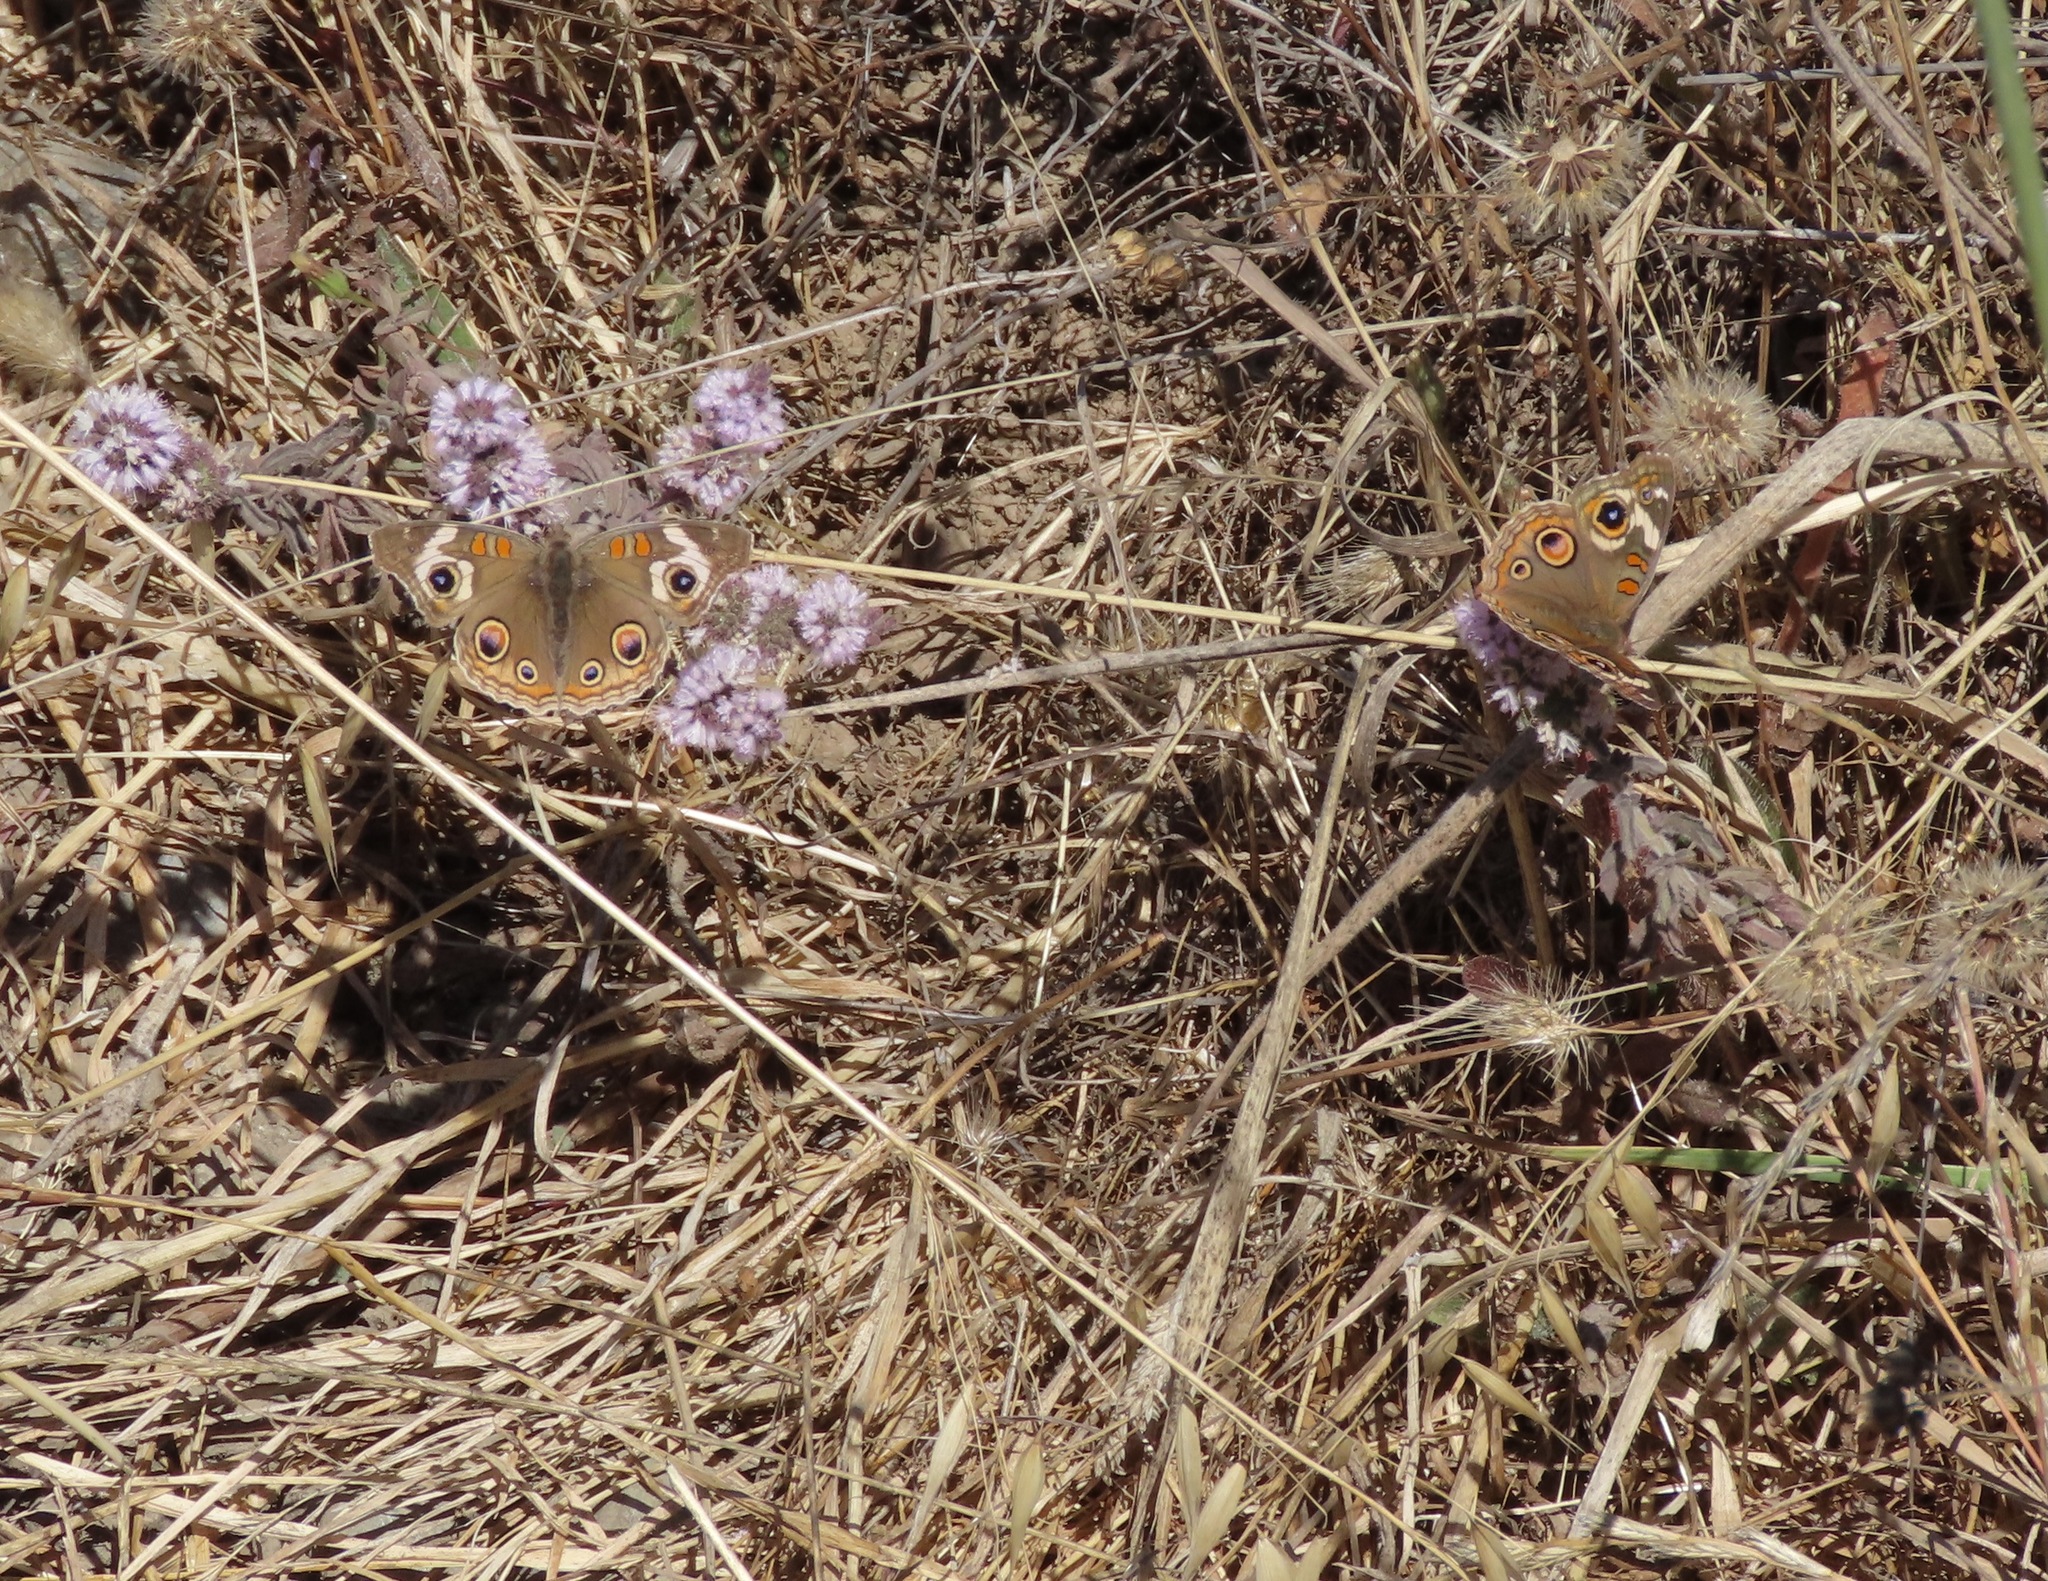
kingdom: Animalia
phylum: Arthropoda
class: Insecta
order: Lepidoptera
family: Nymphalidae
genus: Junonia
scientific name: Junonia grisea
